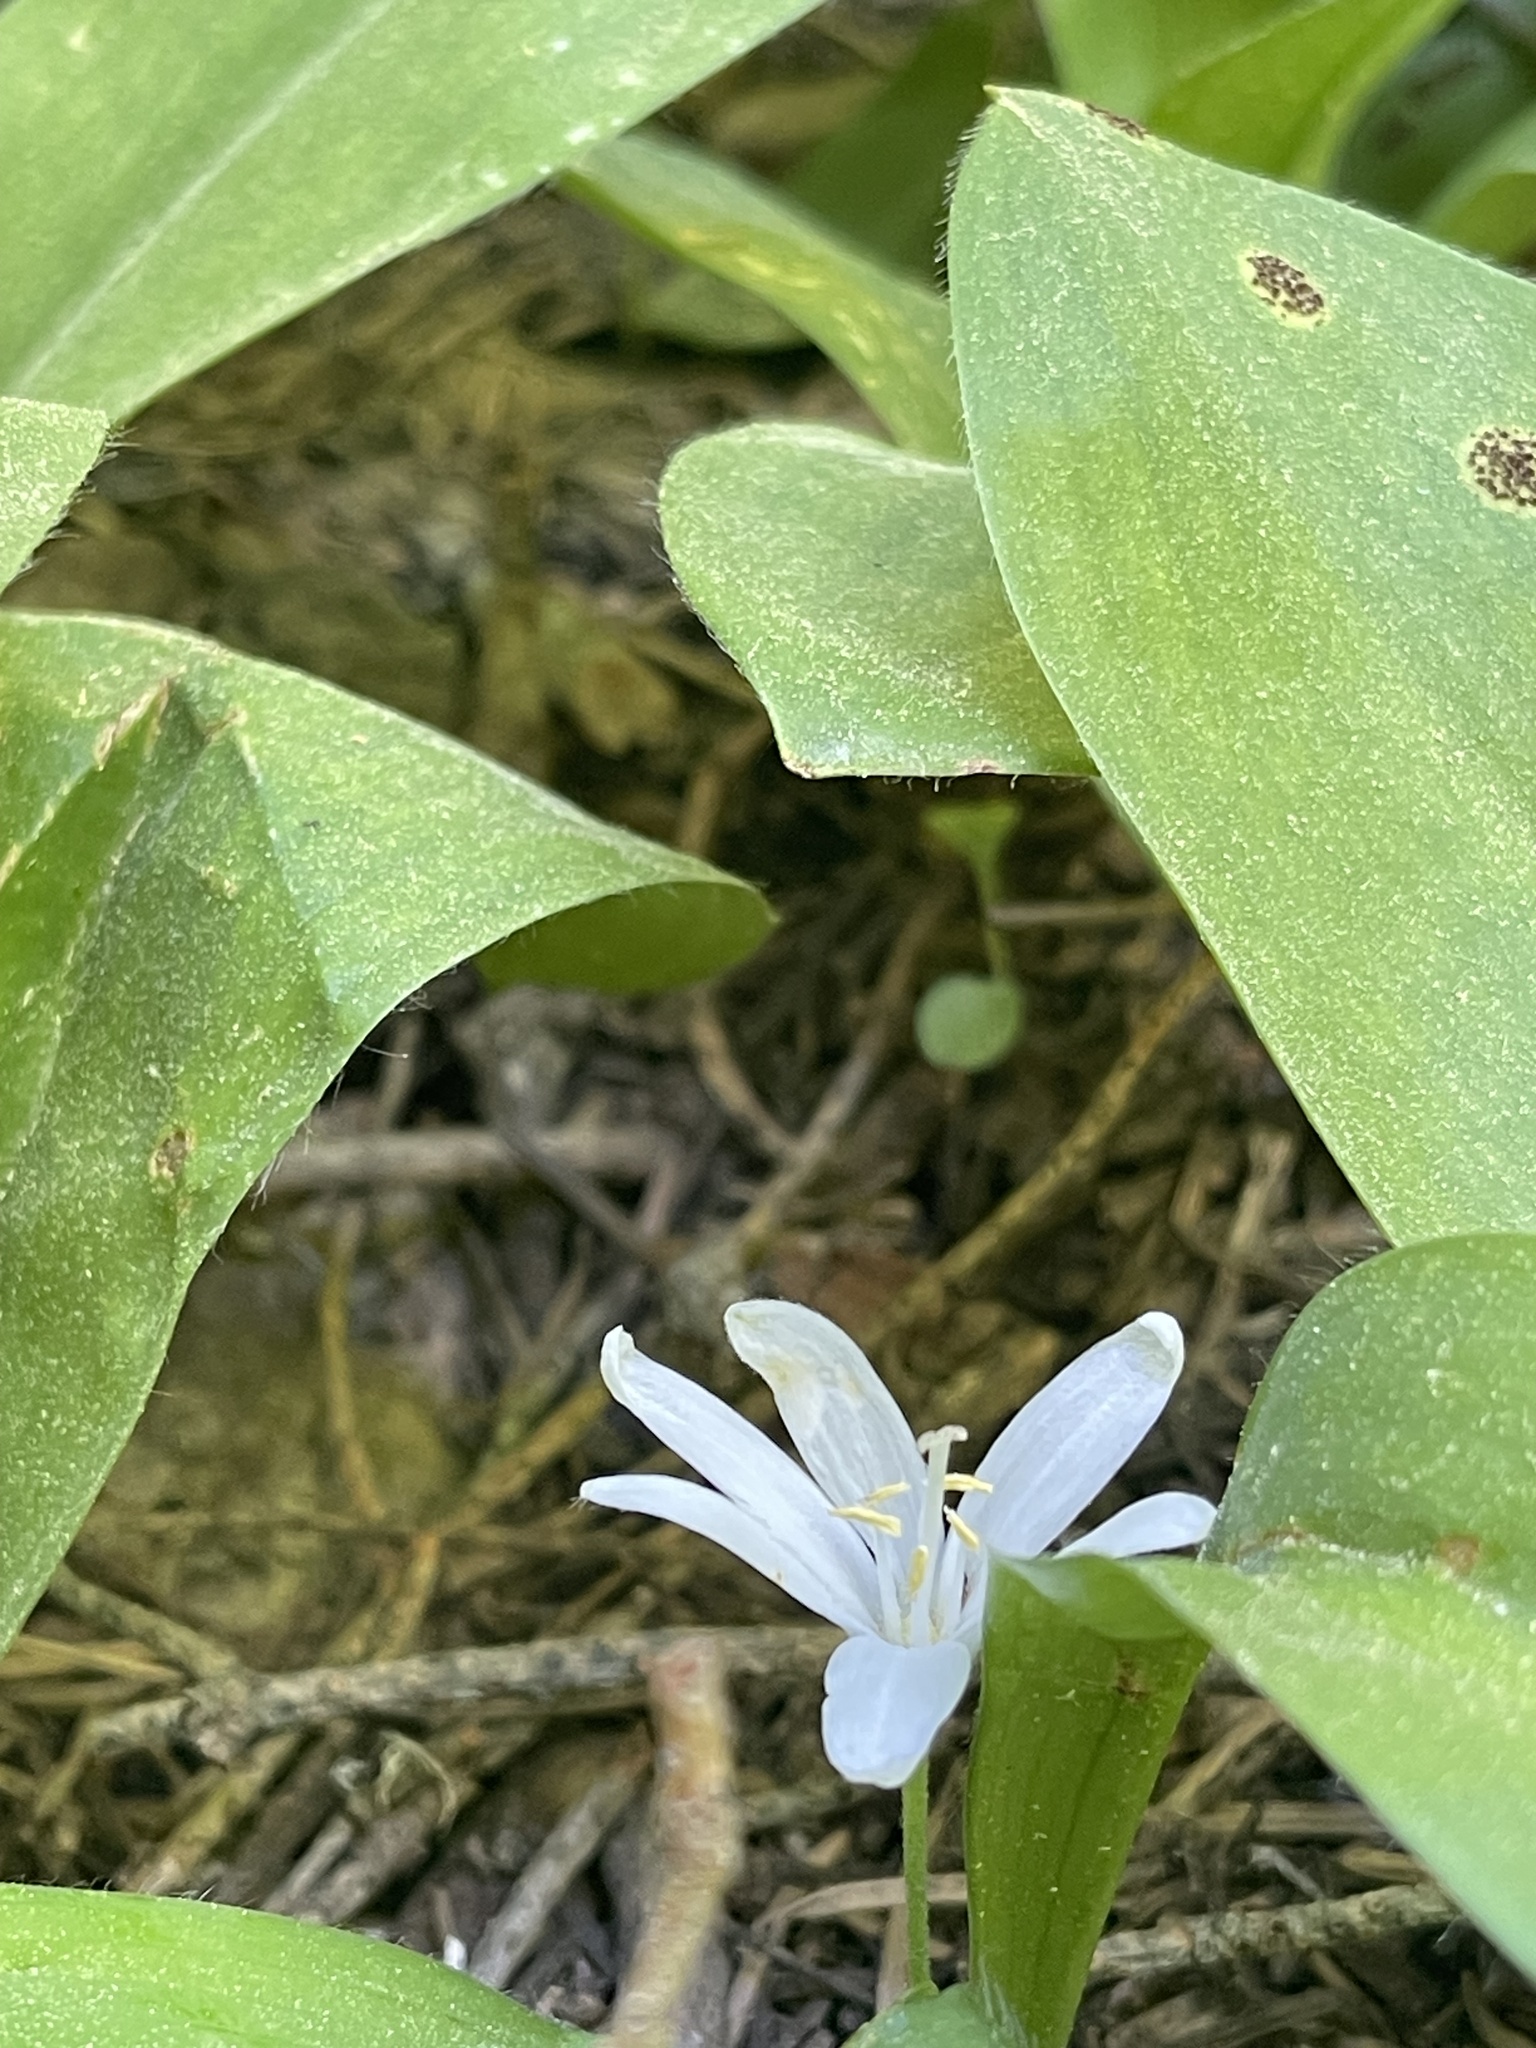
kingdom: Plantae
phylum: Tracheophyta
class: Liliopsida
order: Liliales
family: Liliaceae
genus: Clintonia
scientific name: Clintonia uniflora
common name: Queen's cup
